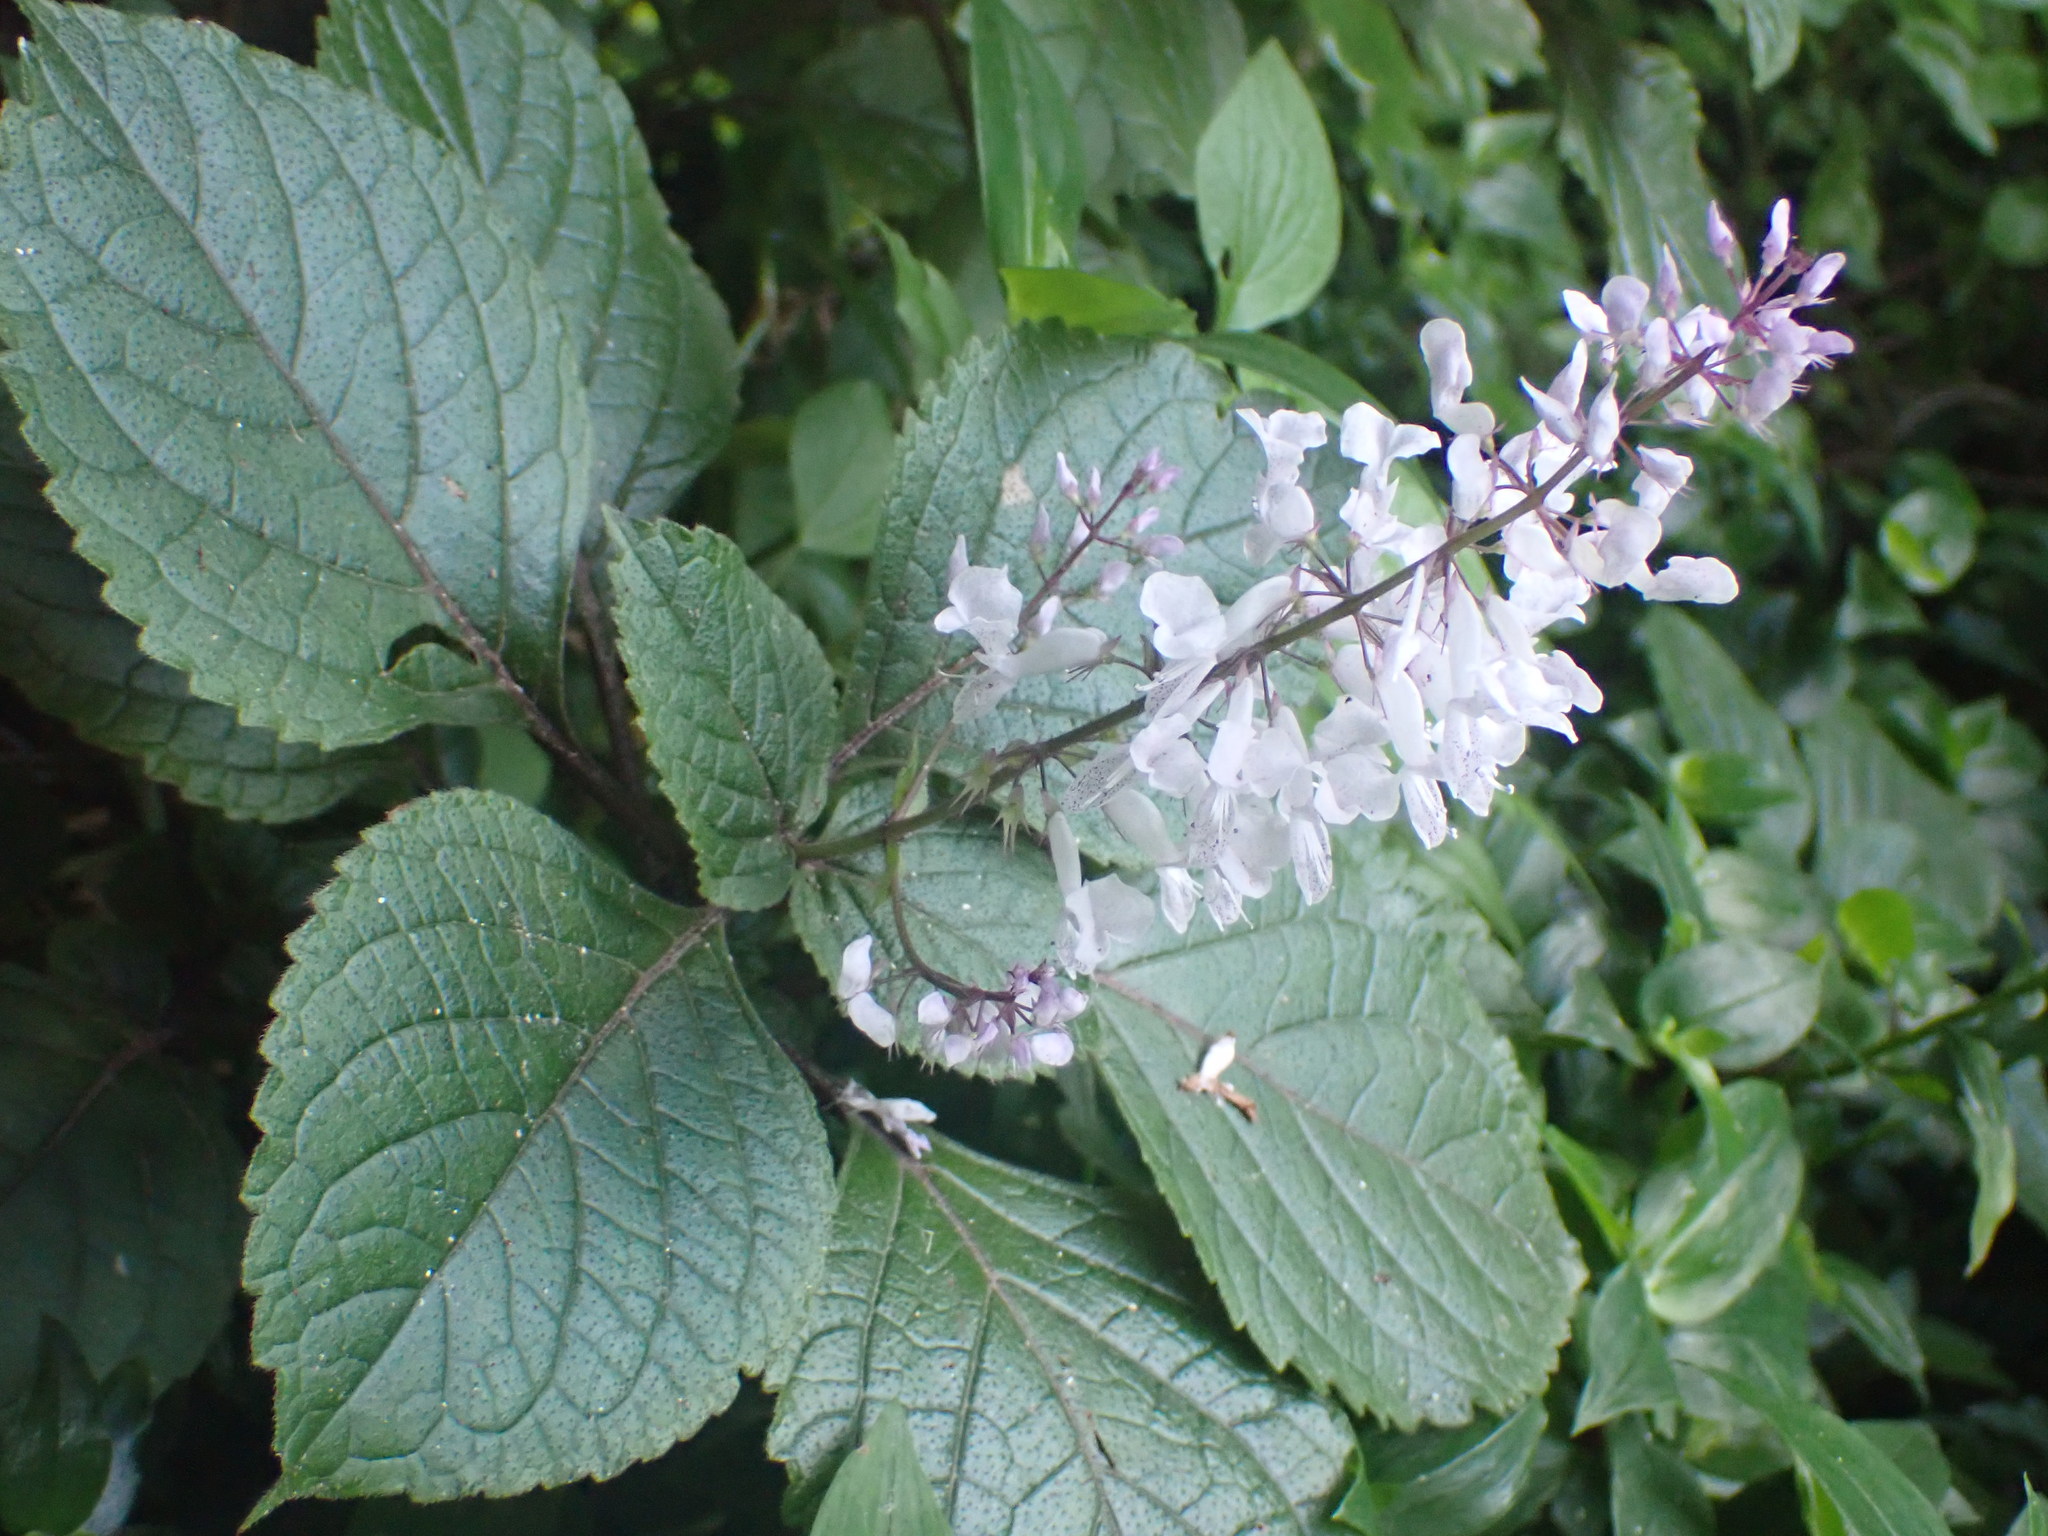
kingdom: Plantae
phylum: Tracheophyta
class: Magnoliopsida
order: Lamiales
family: Lamiaceae
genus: Plectranthus
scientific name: Plectranthus ciliatus
